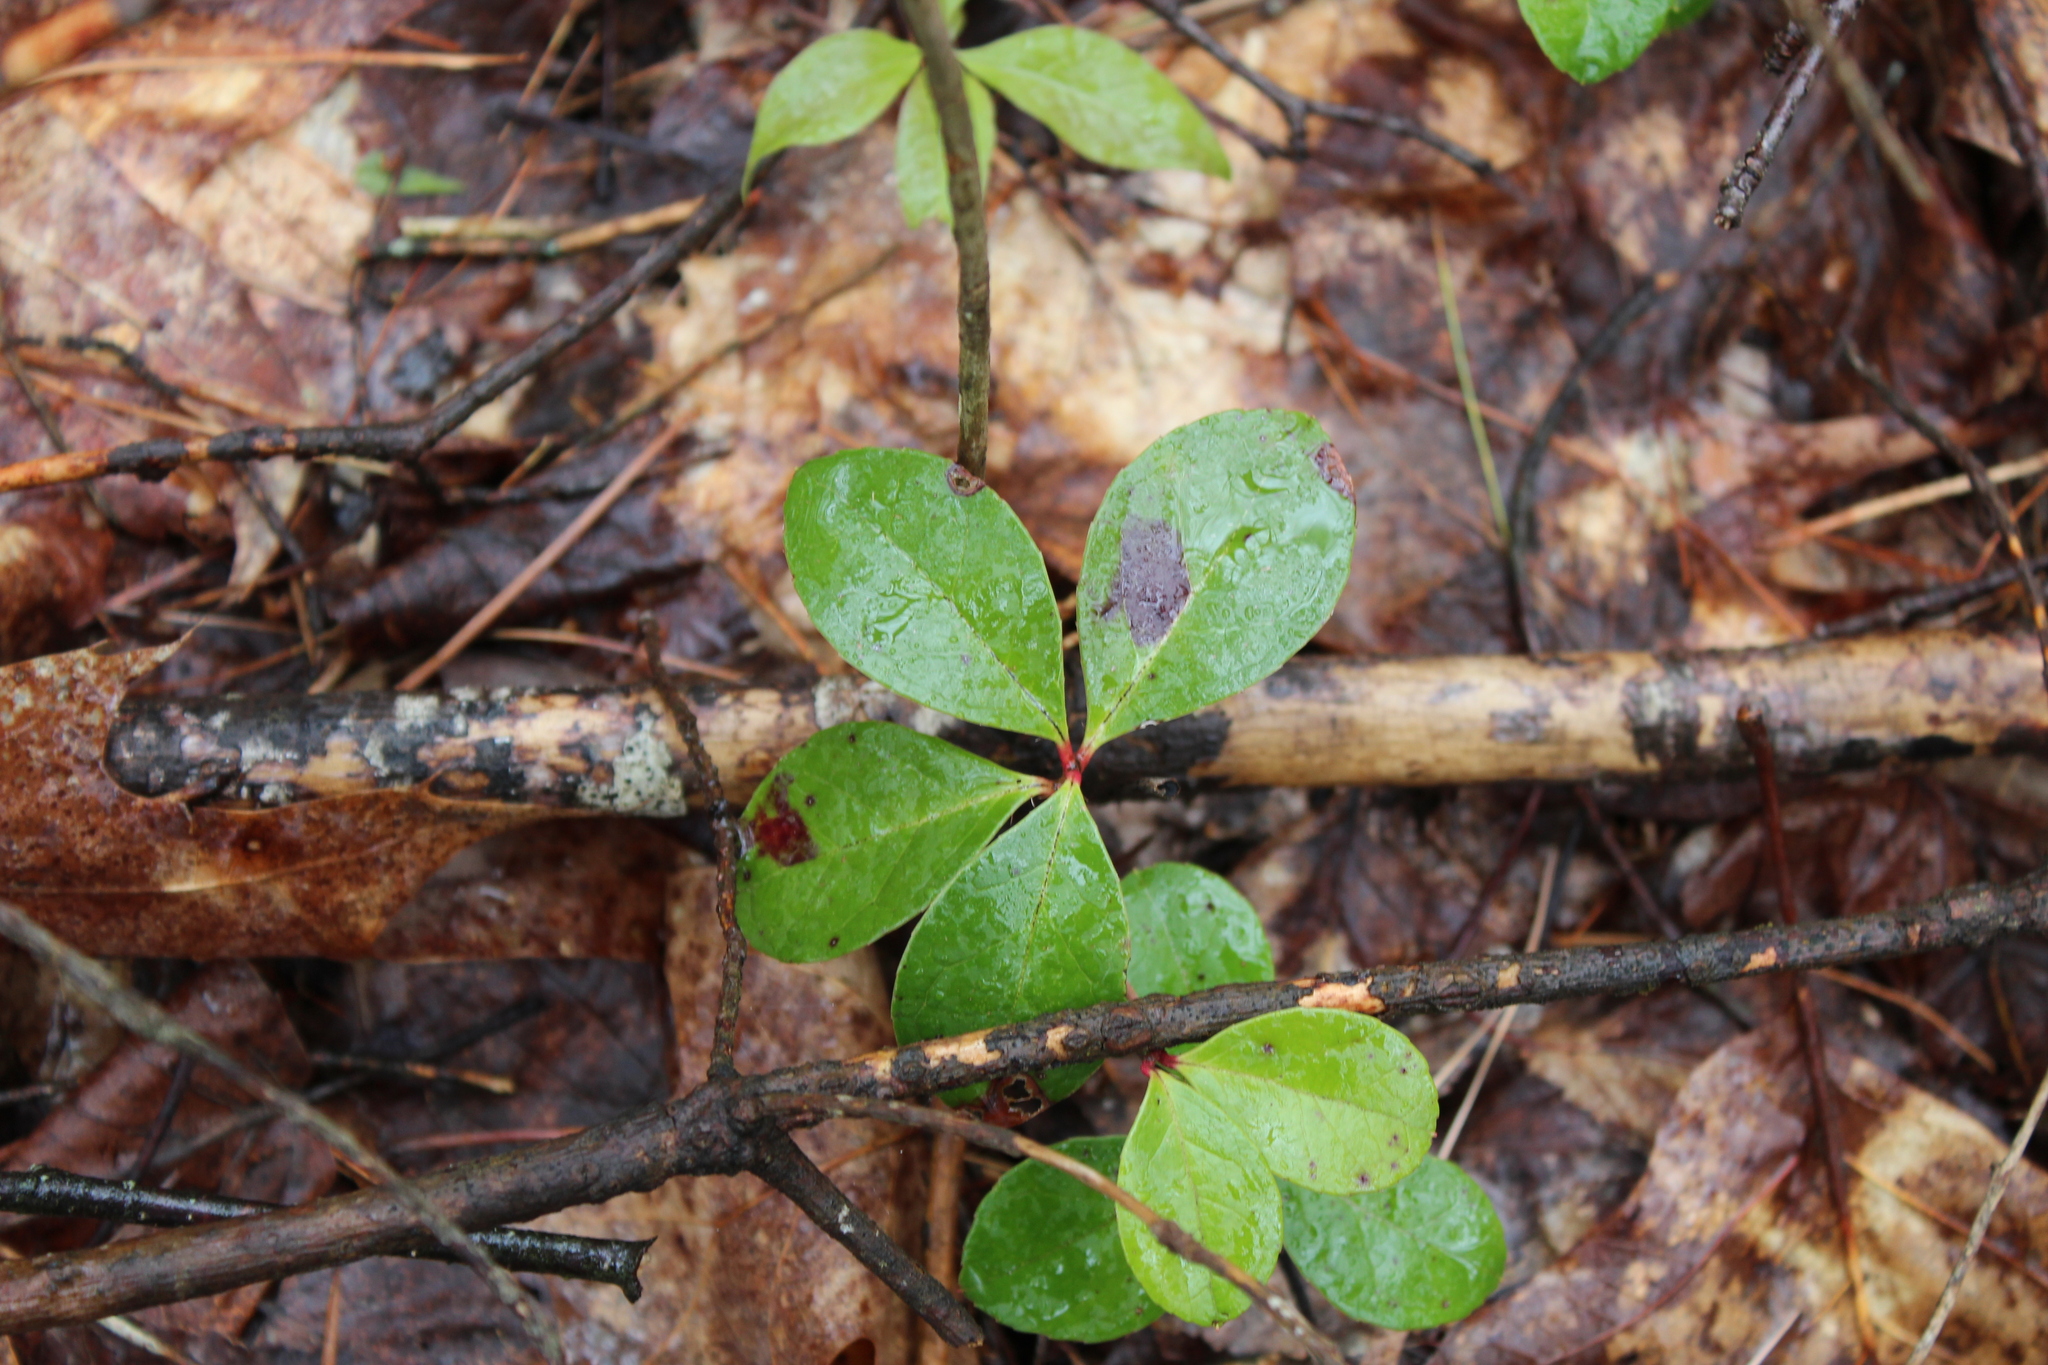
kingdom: Plantae
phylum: Tracheophyta
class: Magnoliopsida
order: Ericales
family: Ericaceae
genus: Gaultheria
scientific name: Gaultheria procumbens
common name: Checkerberry
